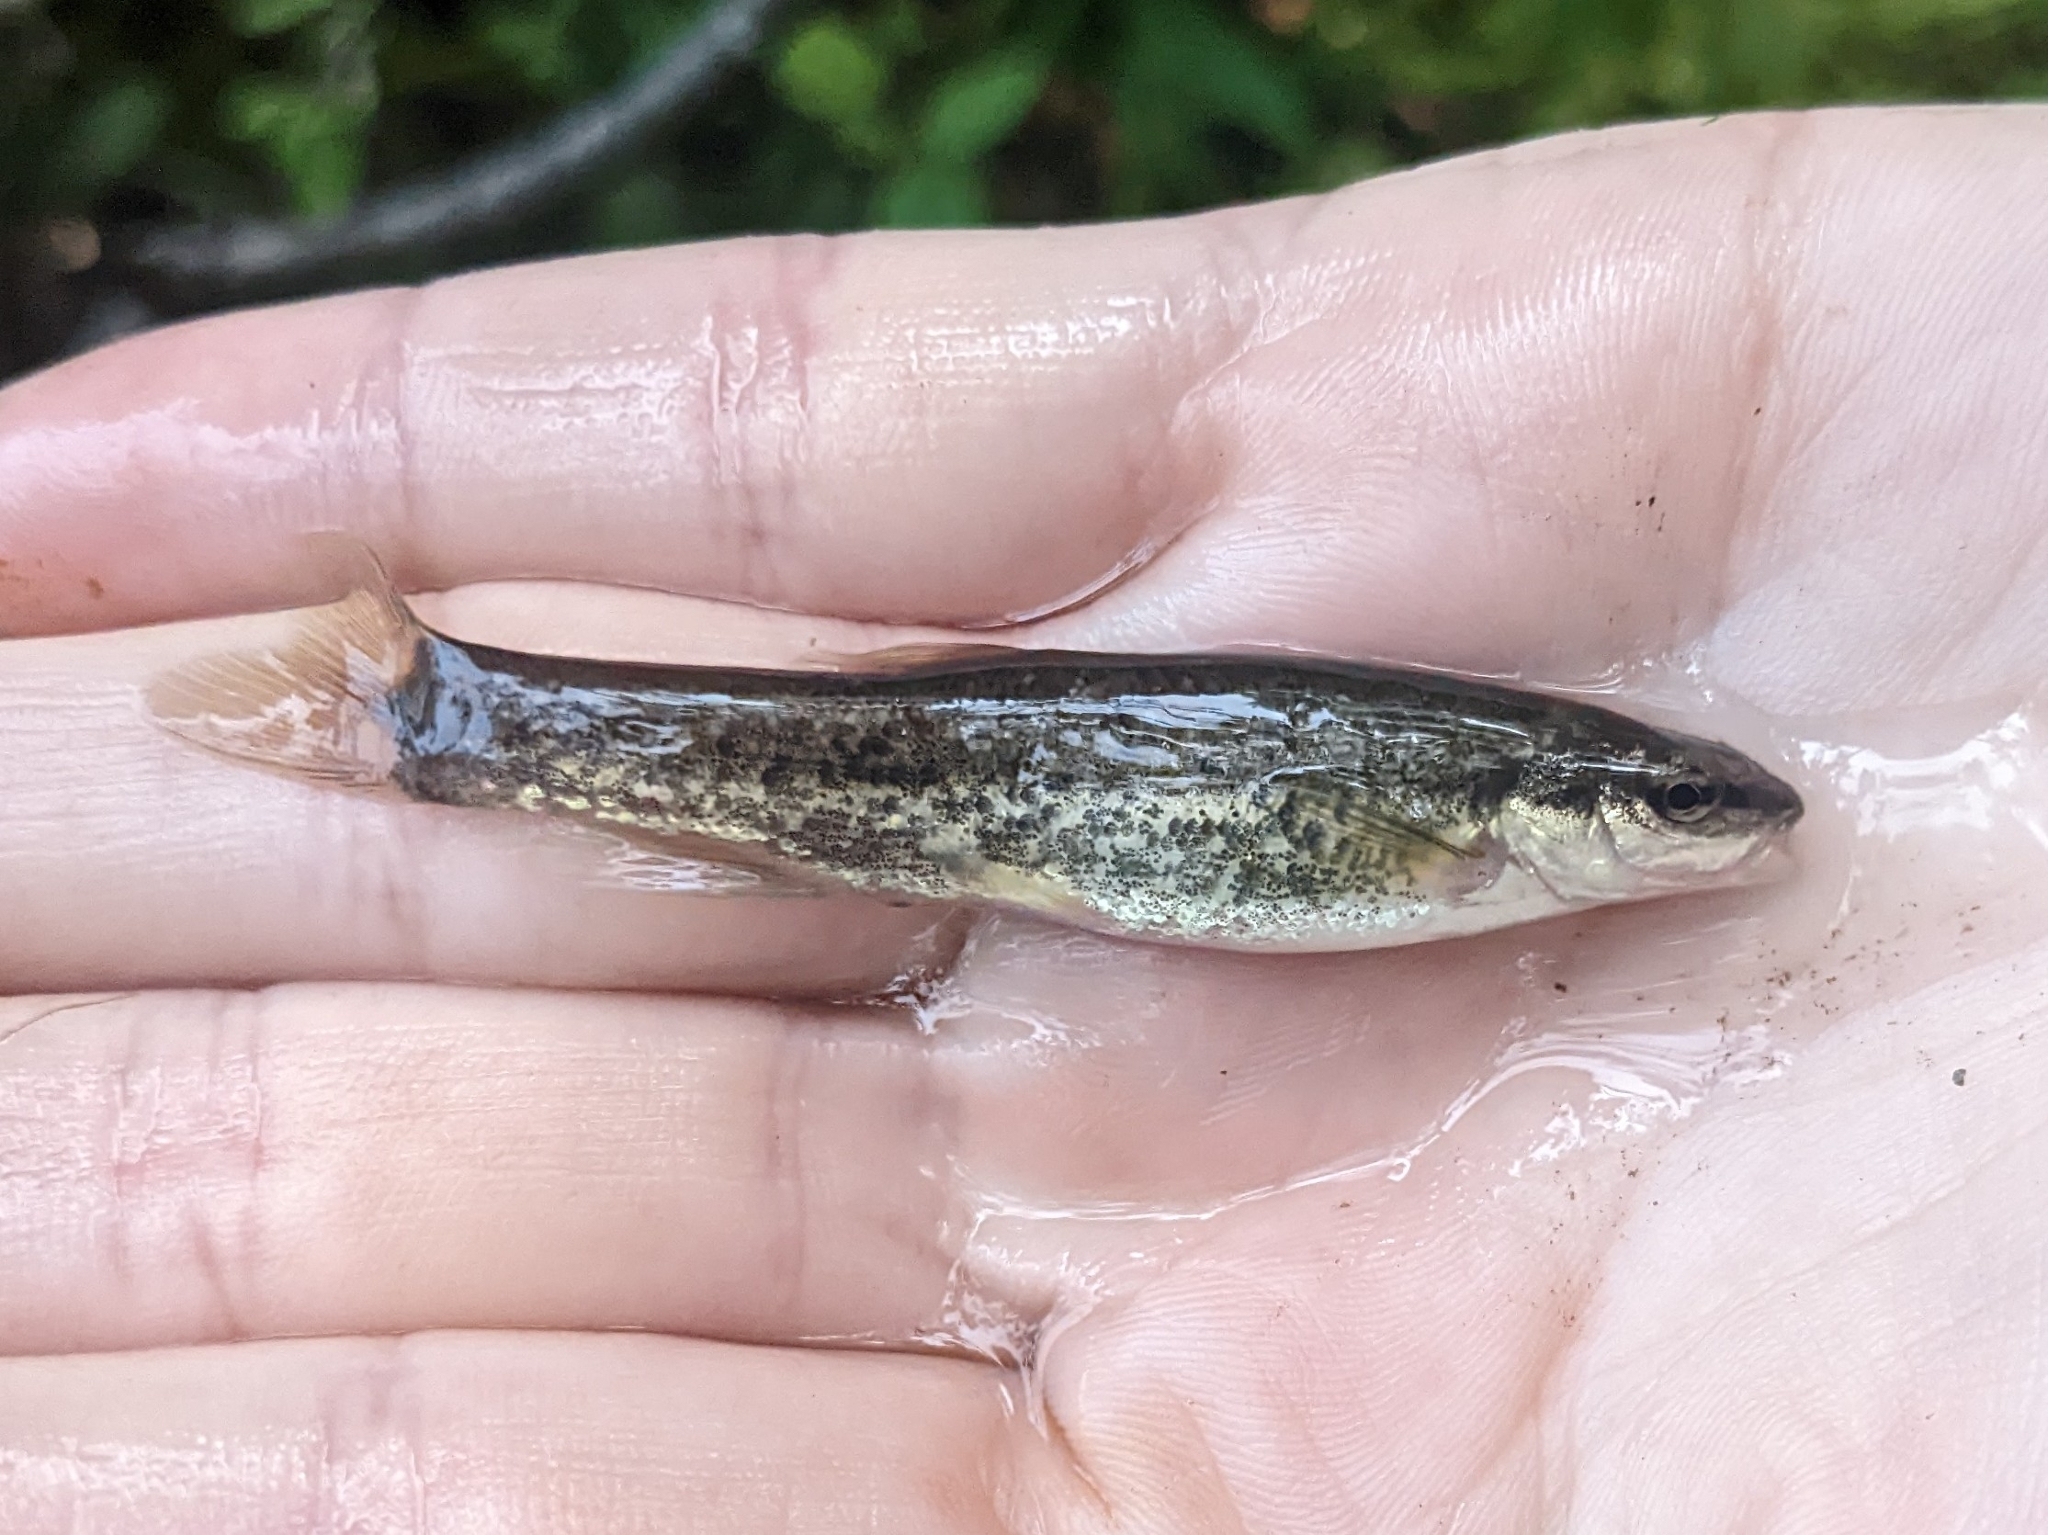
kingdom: Animalia
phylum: Chordata
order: Cypriniformes
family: Cyprinidae
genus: Rhinichthys
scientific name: Rhinichthys atratulus
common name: Eastern blacknose dace
